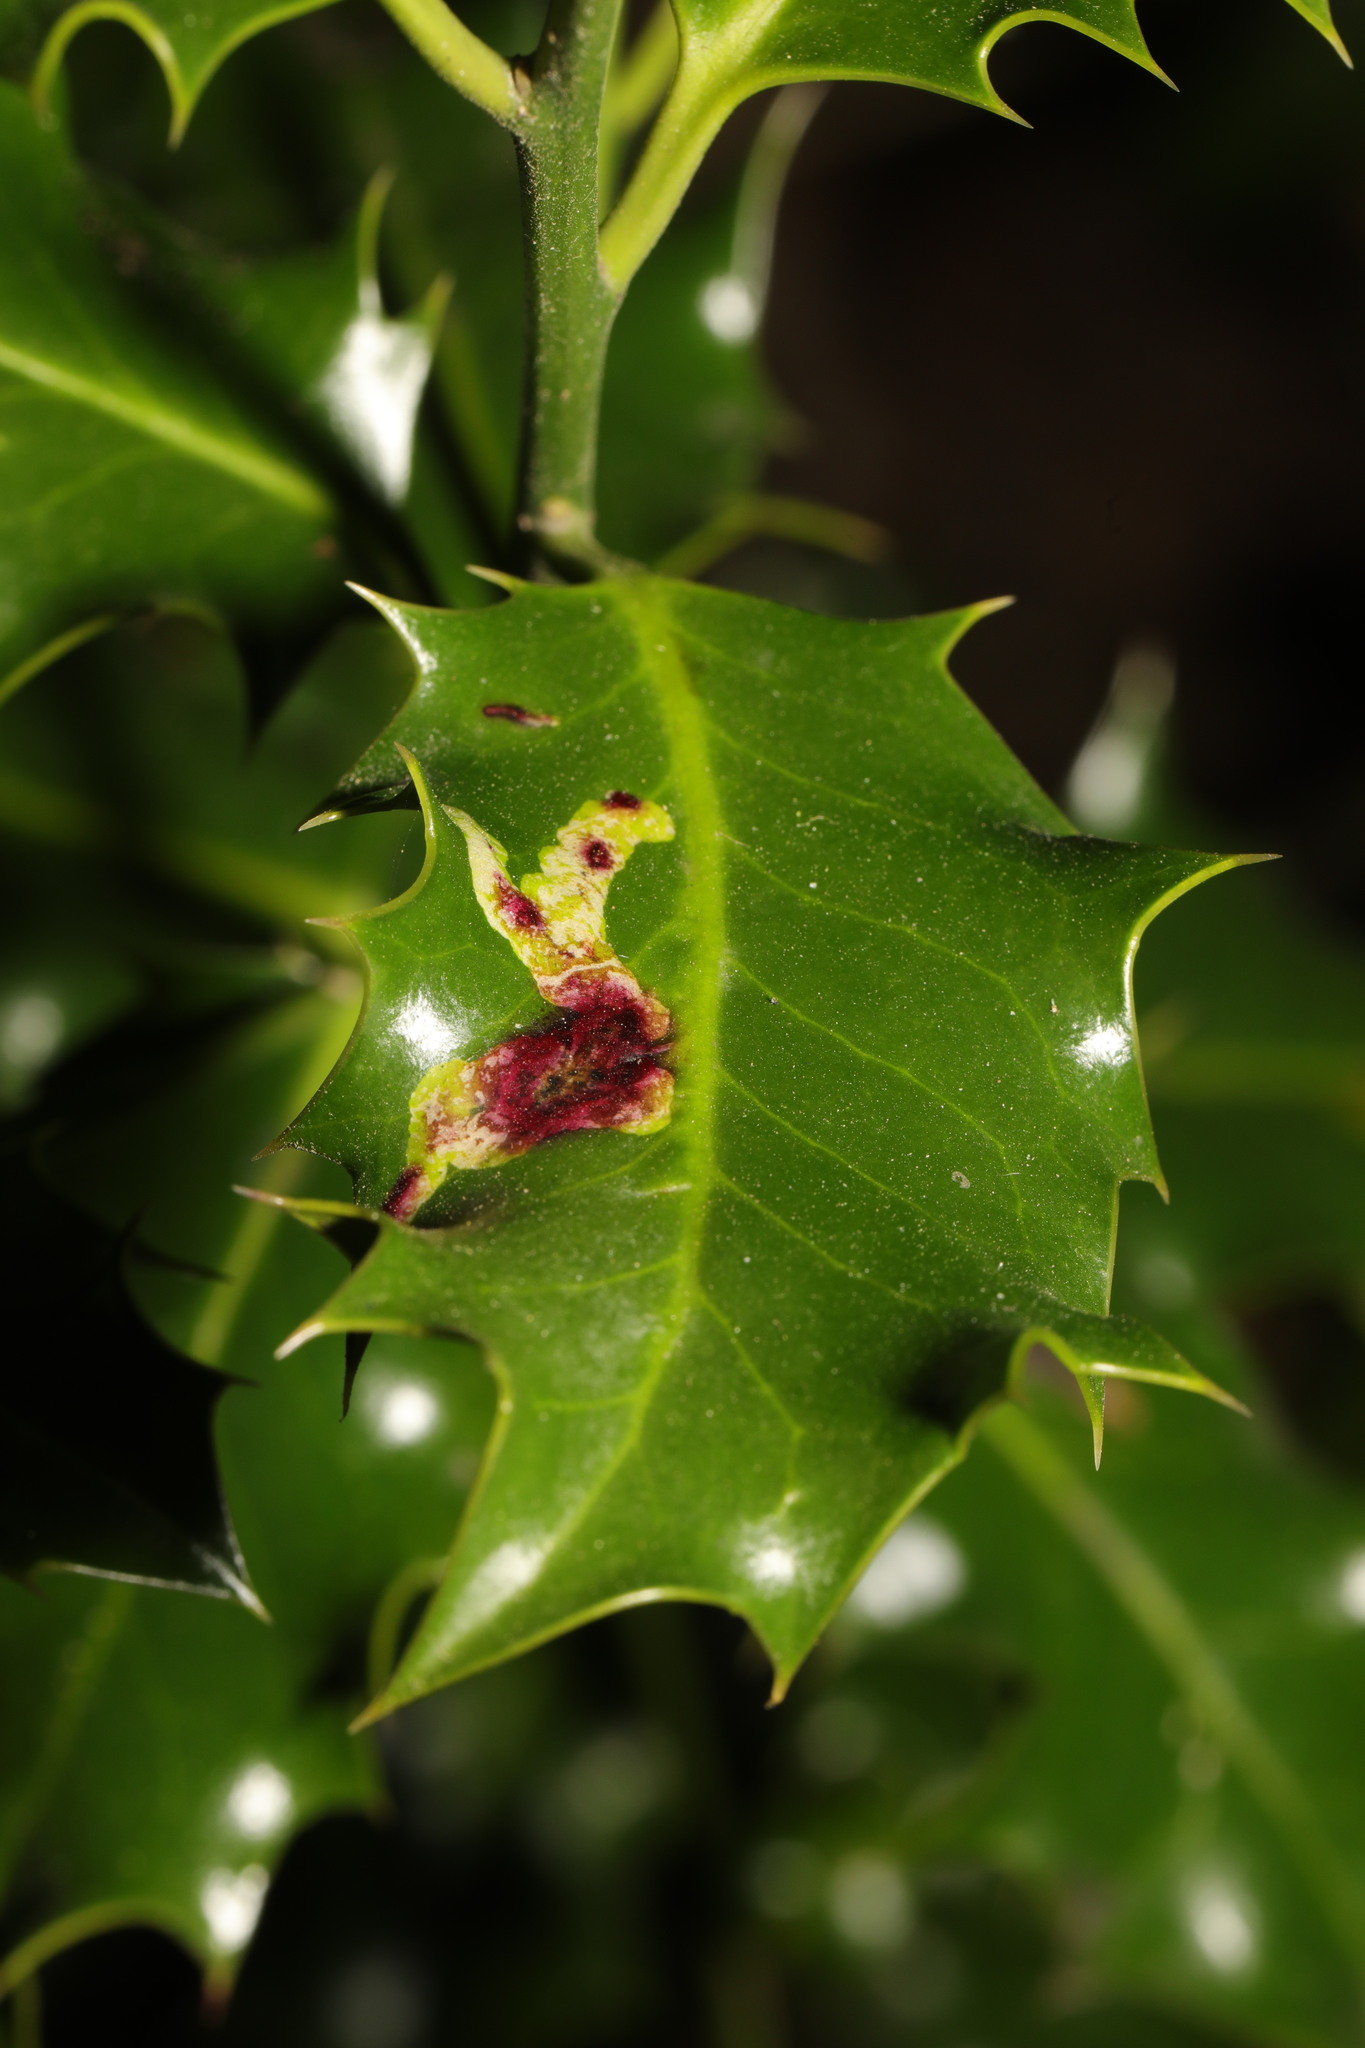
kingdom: Animalia
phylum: Arthropoda
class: Insecta
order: Diptera
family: Agromyzidae
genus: Phytomyza
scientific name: Phytomyza ilicis
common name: Holly leafminer
